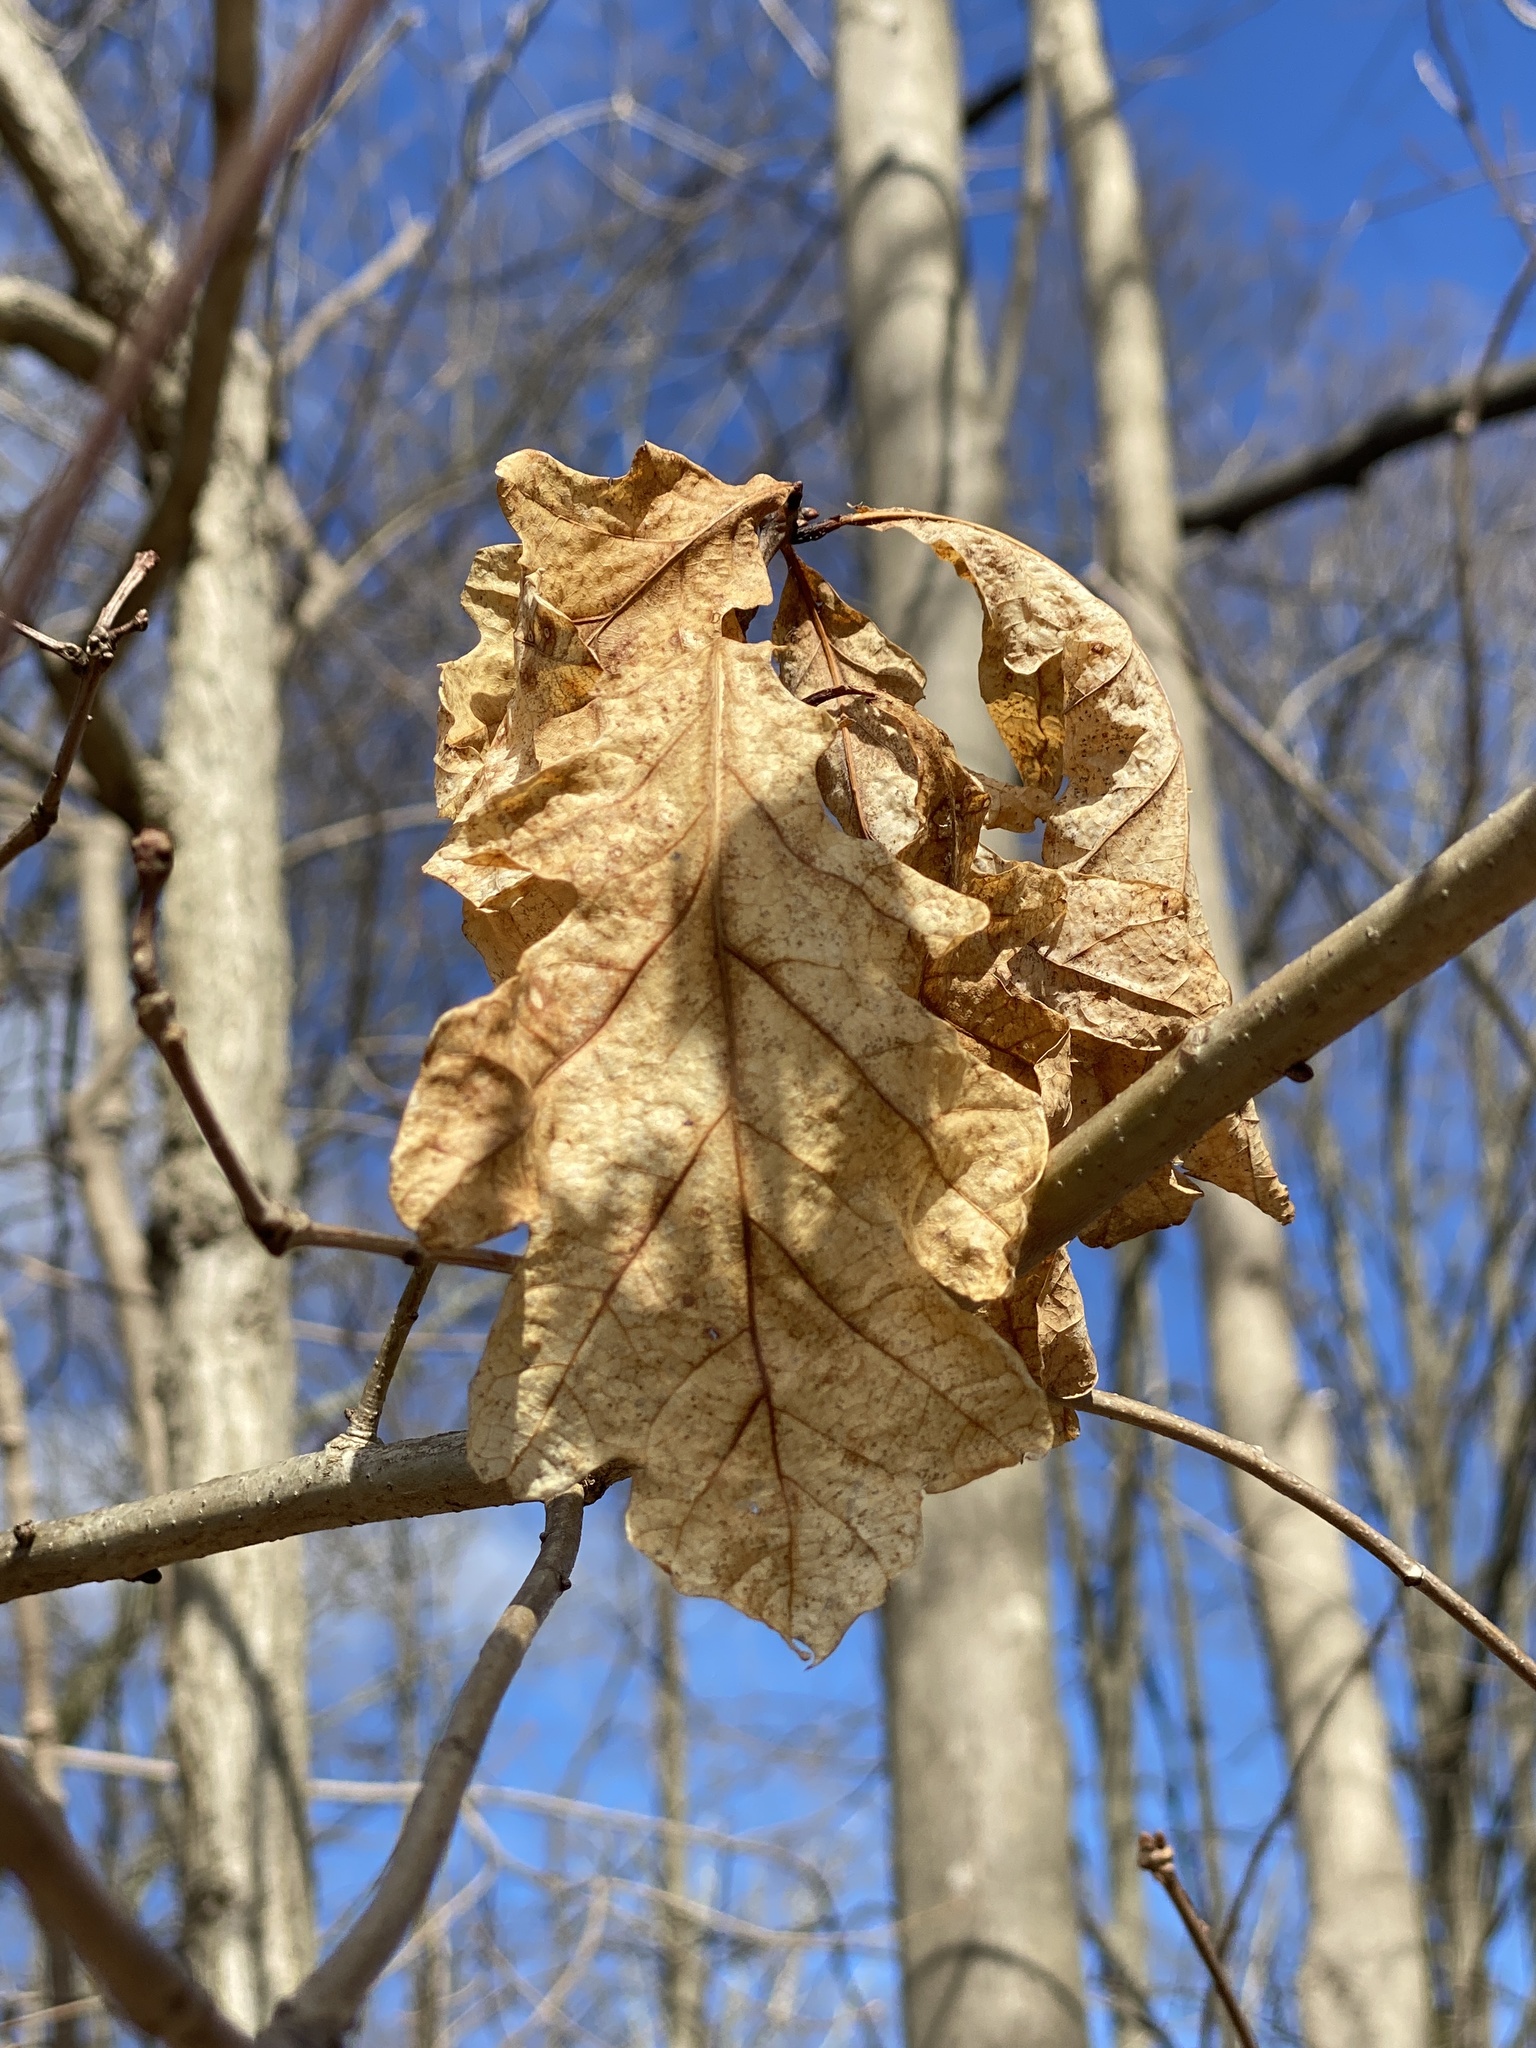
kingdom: Animalia
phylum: Arthropoda
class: Insecta
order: Hymenoptera
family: Cynipidae
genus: Callirhytis
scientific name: Callirhytis clavula
